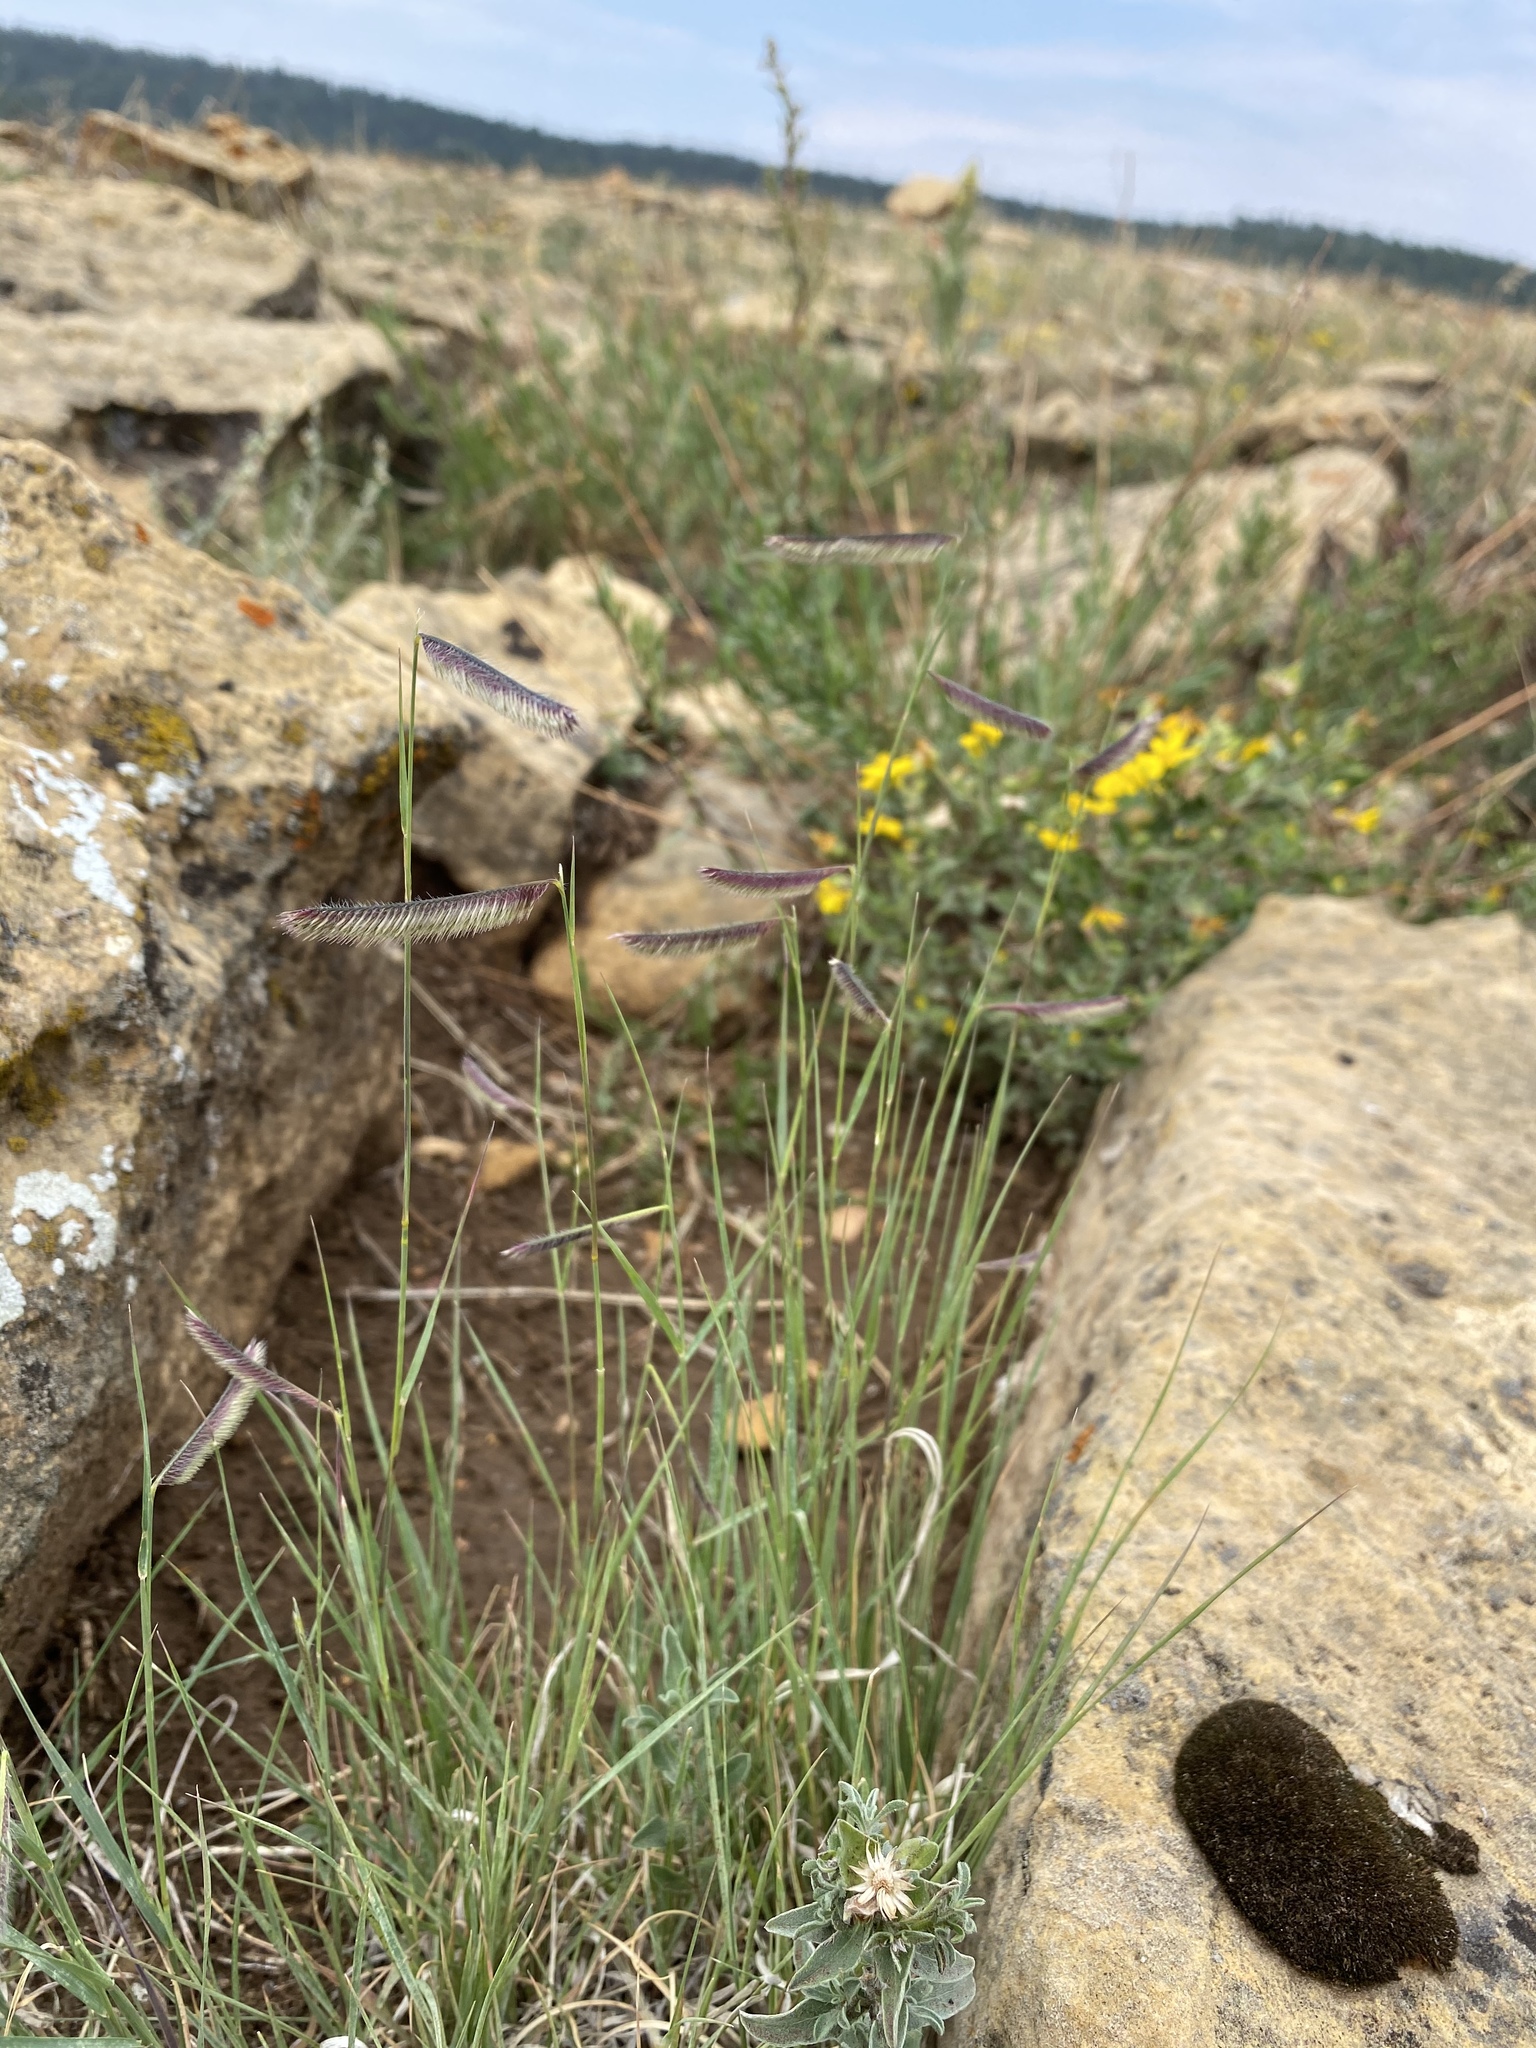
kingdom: Plantae
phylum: Tracheophyta
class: Liliopsida
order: Poales
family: Poaceae
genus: Bouteloua
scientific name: Bouteloua gracilis
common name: Blue grama
